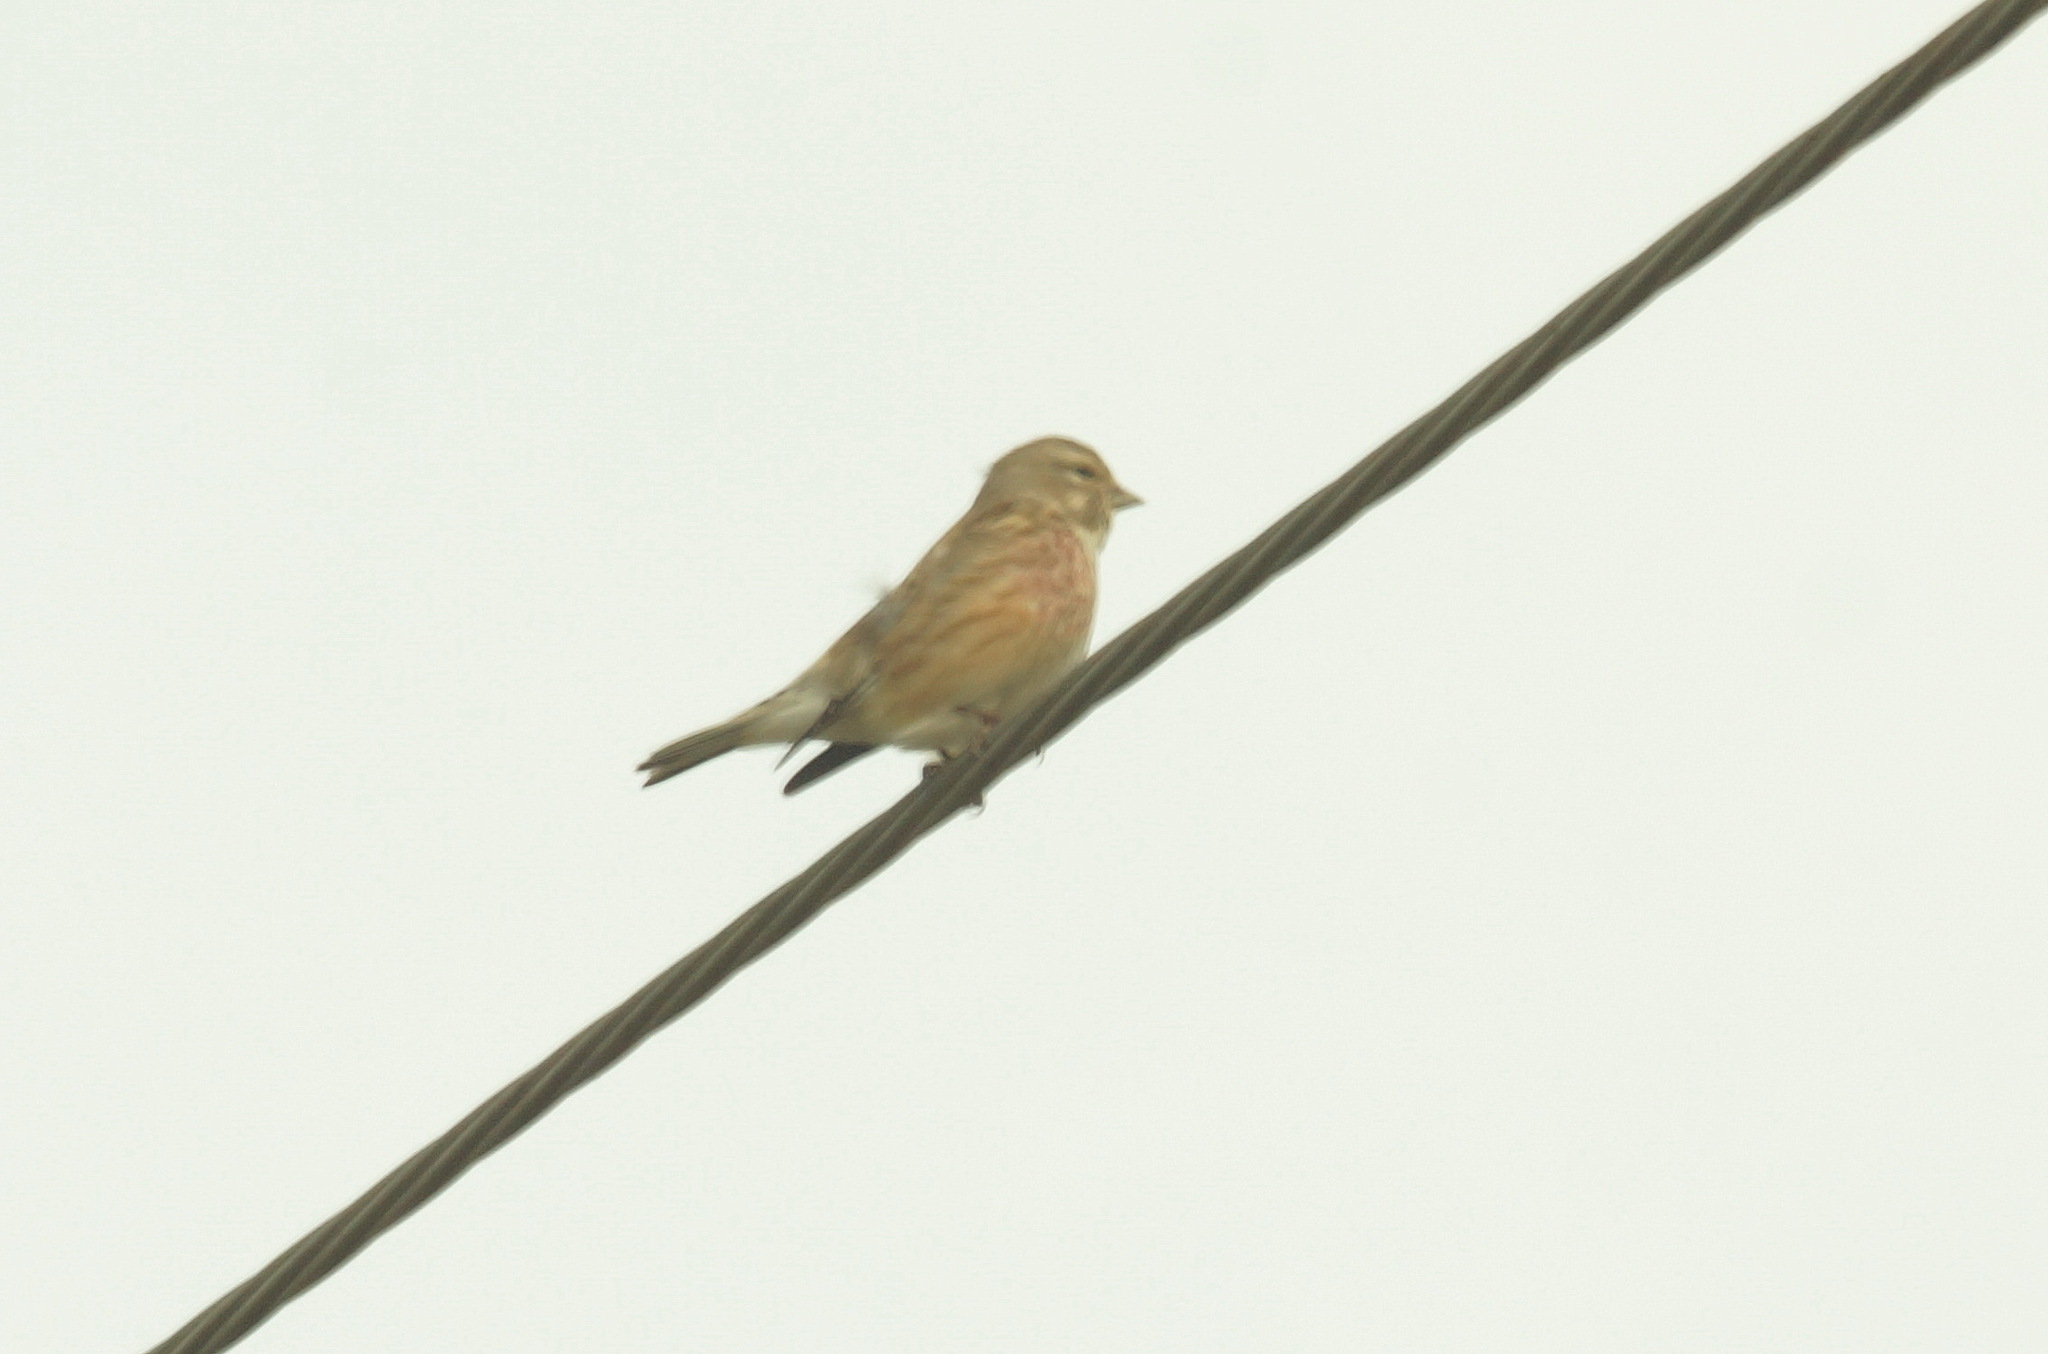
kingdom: Animalia
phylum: Chordata
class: Aves
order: Passeriformes
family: Fringillidae
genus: Linaria
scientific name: Linaria cannabina
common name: Common linnet
